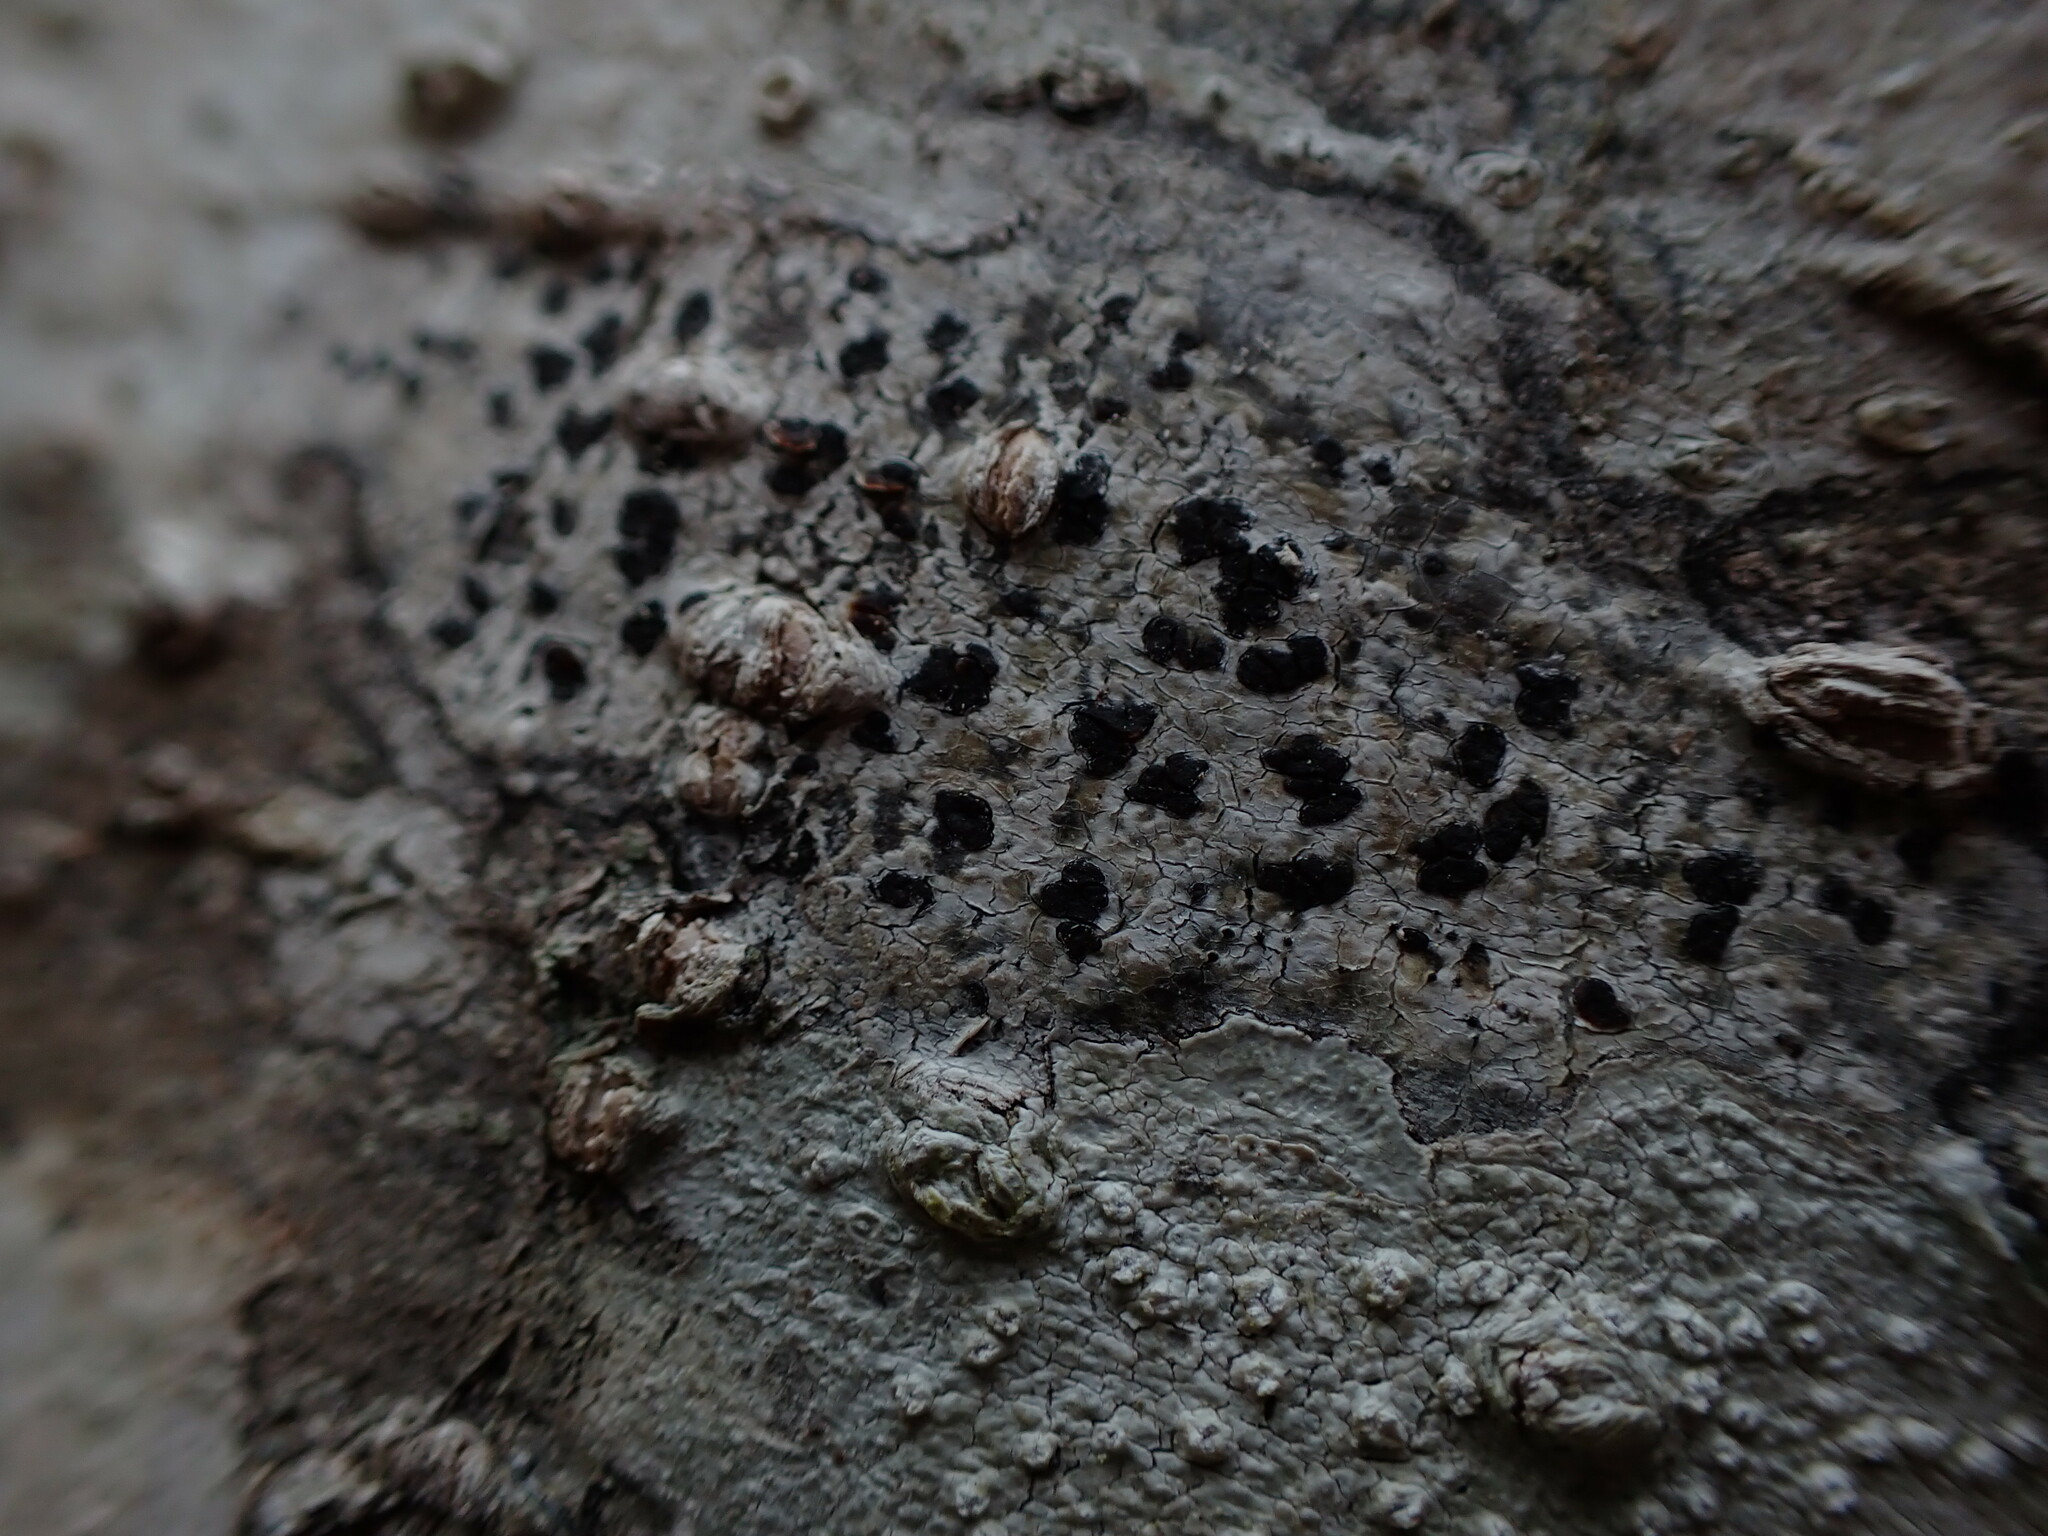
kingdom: Fungi
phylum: Ascomycota
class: Arthoniomycetes
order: Arthoniales
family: Arthoniaceae
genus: Arthonia
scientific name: Arthonia radiata
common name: Asterisk lichen
